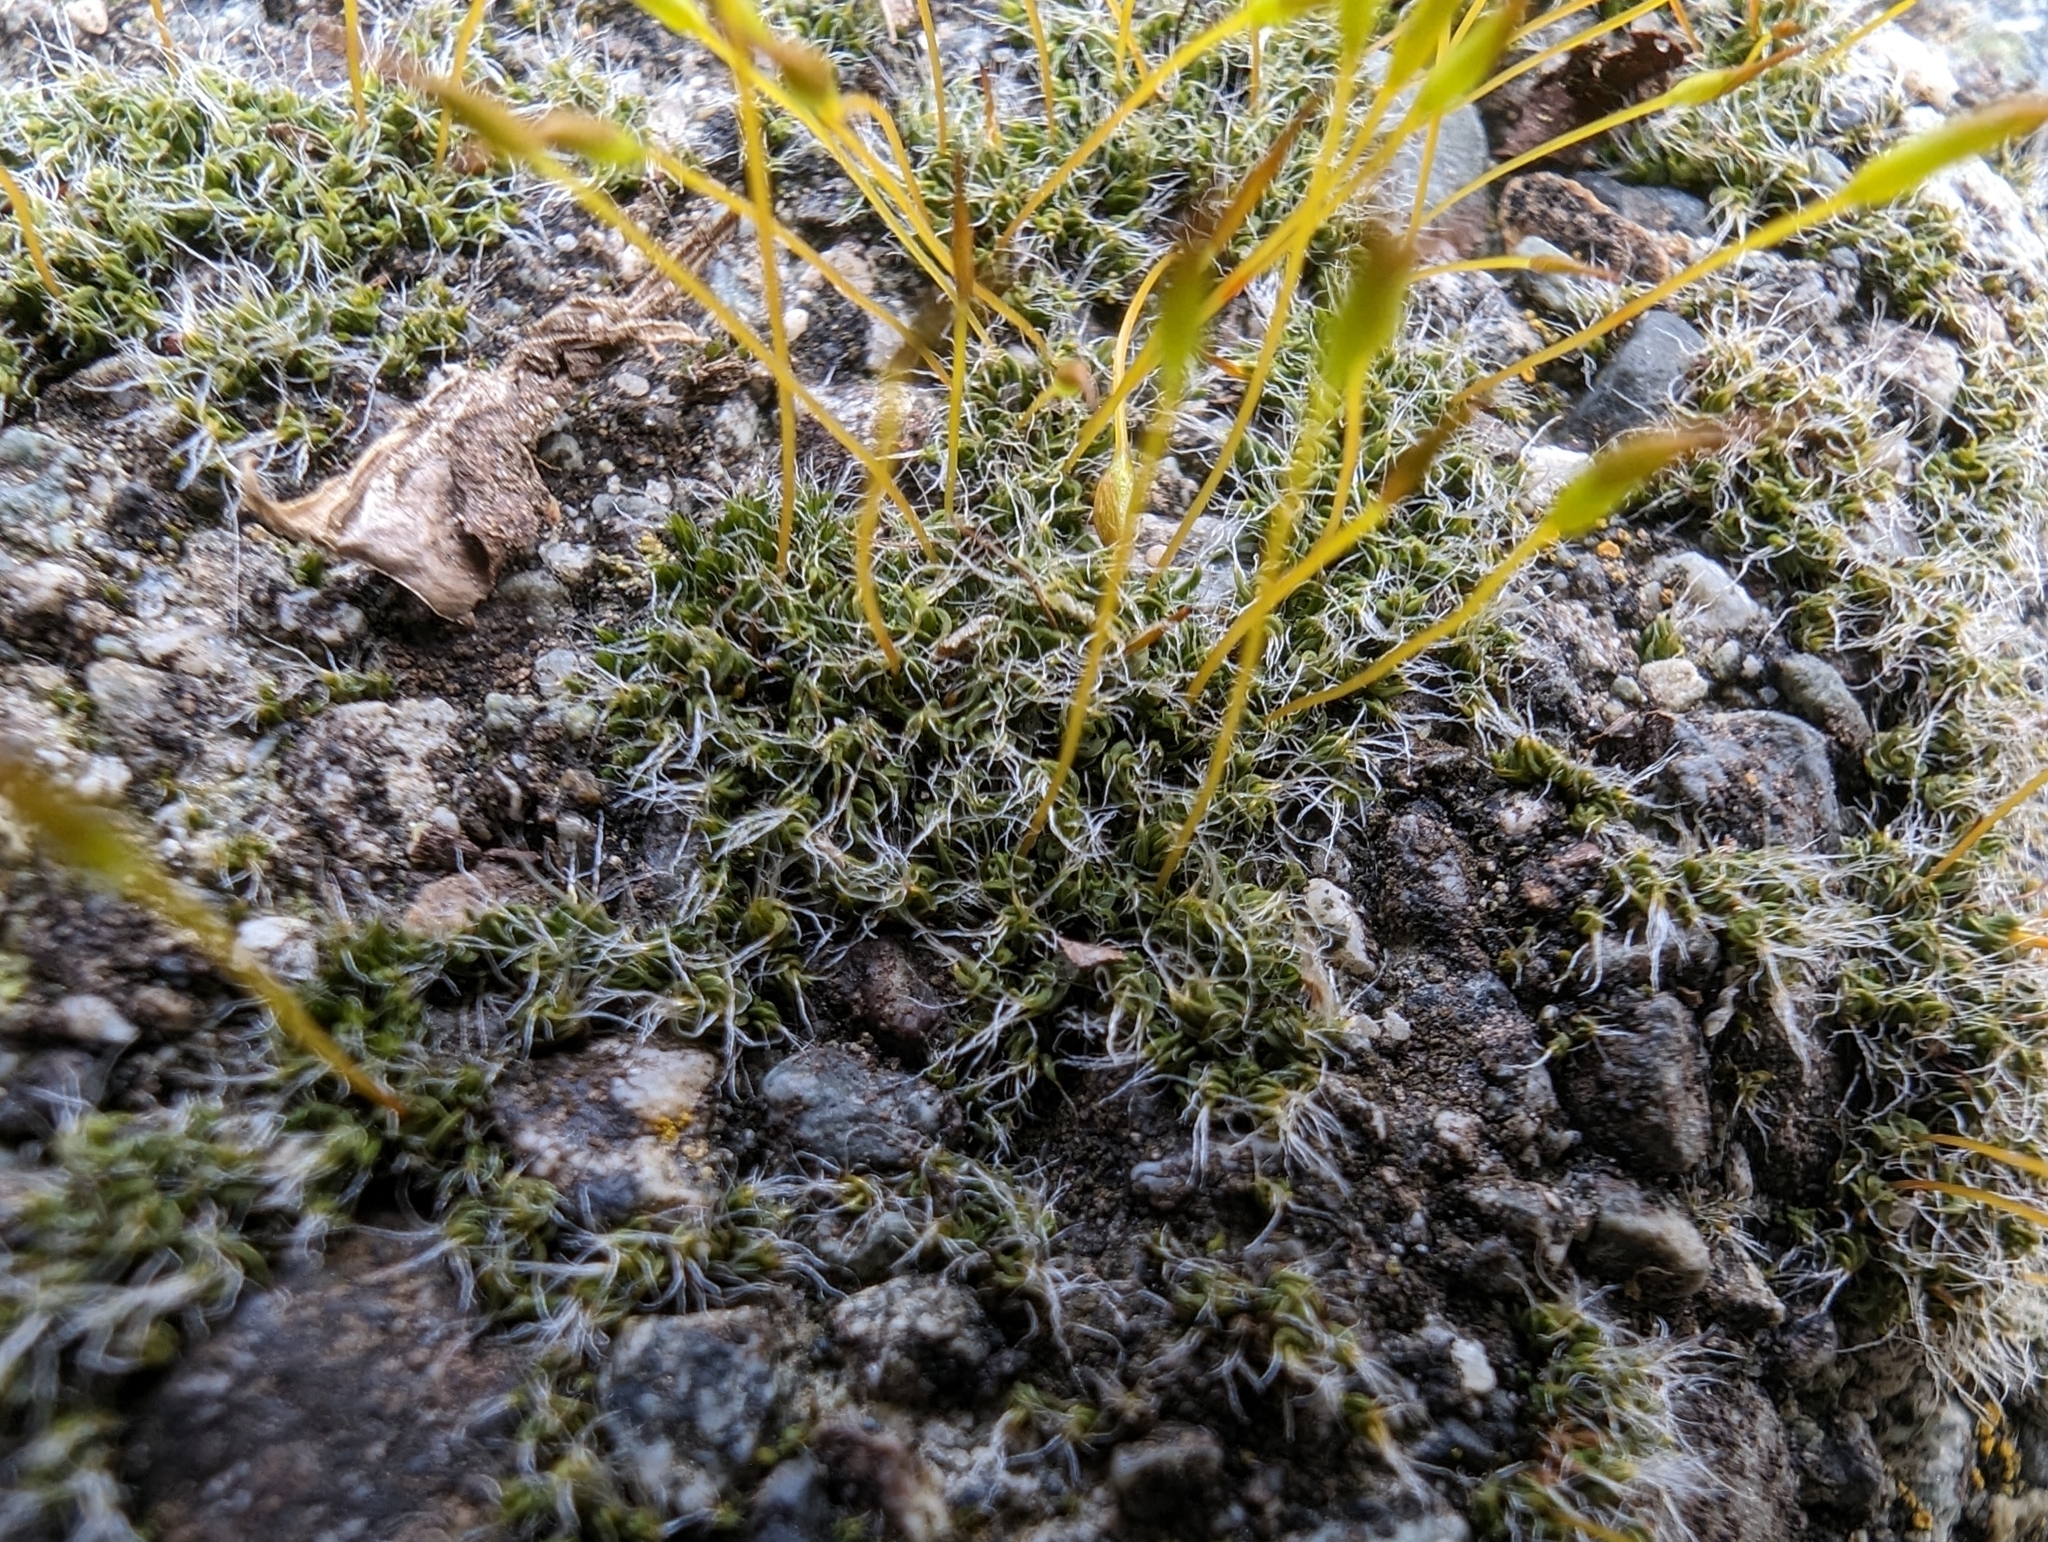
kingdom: Plantae
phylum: Bryophyta
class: Bryopsida
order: Pottiales
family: Pottiaceae
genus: Tortula
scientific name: Tortula muralis
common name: Wall screw-moss
